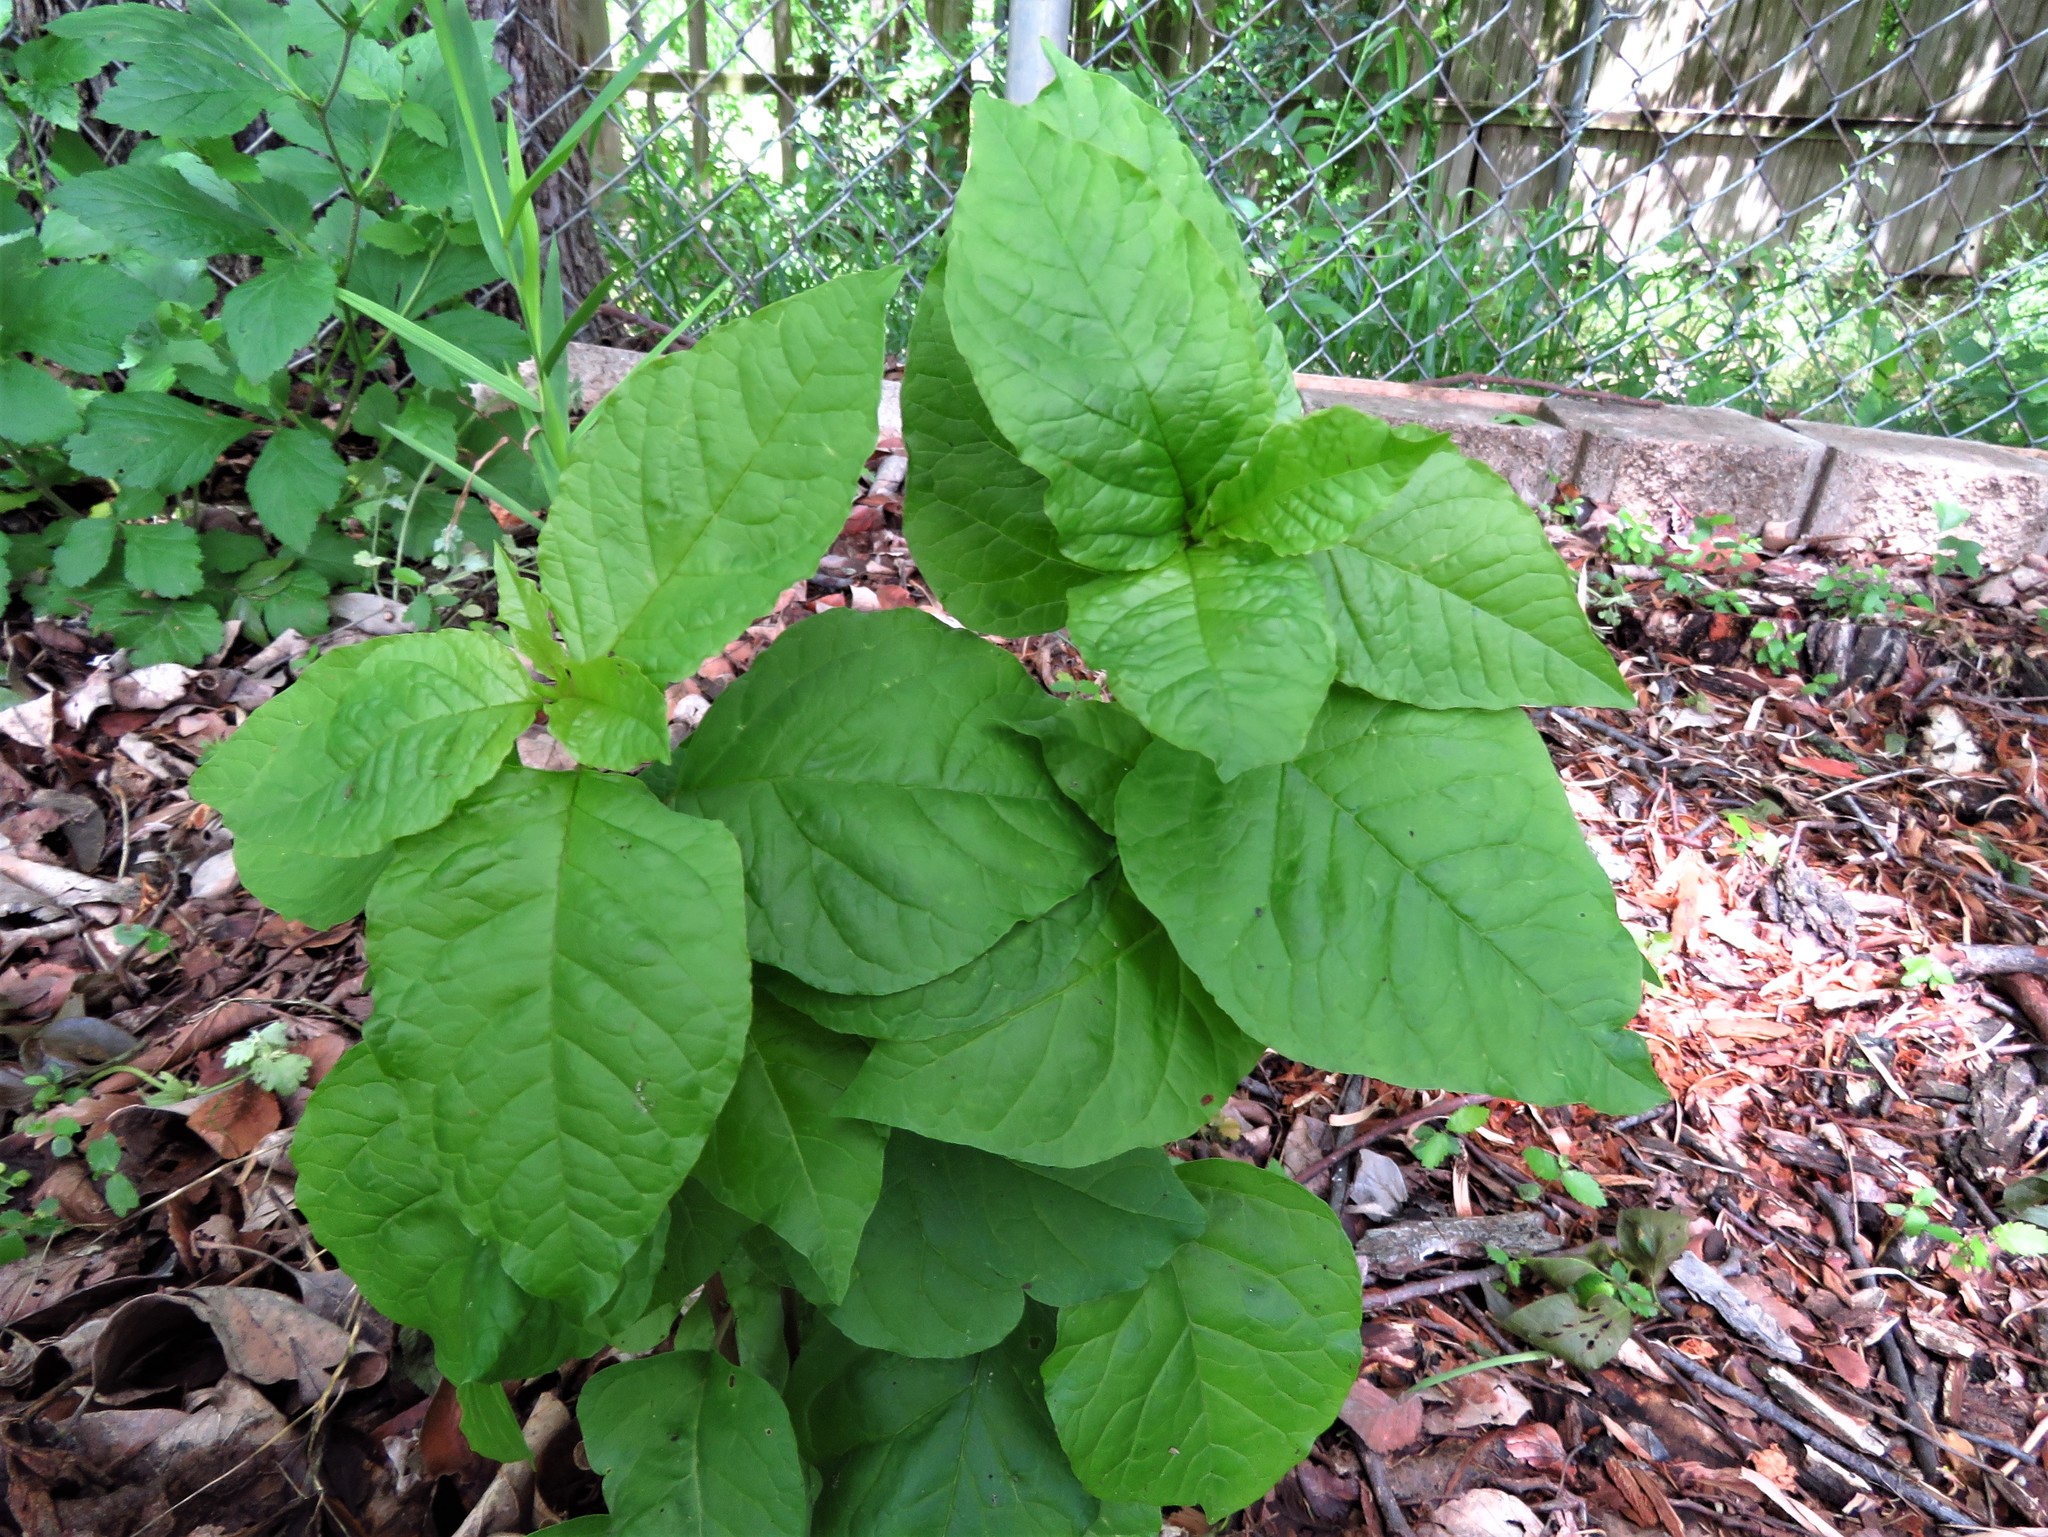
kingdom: Plantae
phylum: Tracheophyta
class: Magnoliopsida
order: Caryophyllales
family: Phytolaccaceae
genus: Phytolacca
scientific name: Phytolacca americana
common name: American pokeweed
